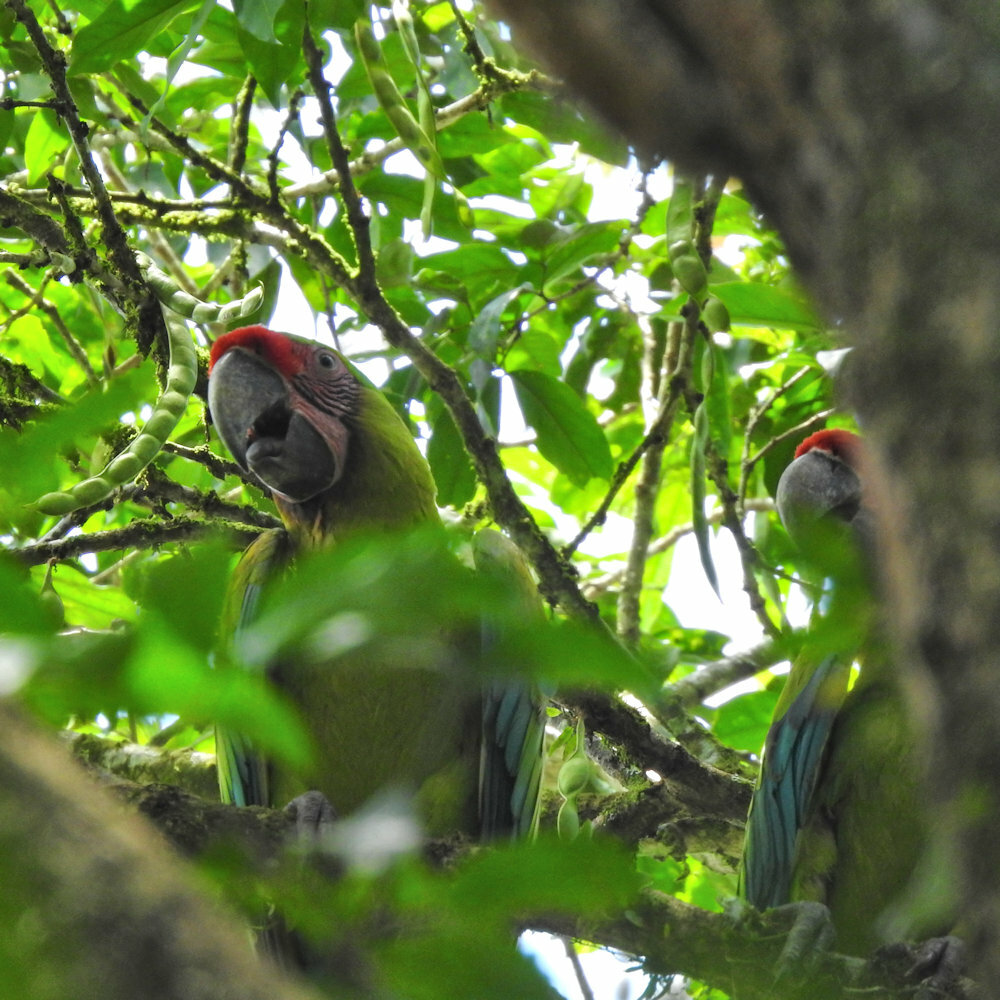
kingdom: Animalia
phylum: Chordata
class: Aves
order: Psittaciformes
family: Psittacidae
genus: Ara
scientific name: Ara ambiguus
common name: Great green macaw
